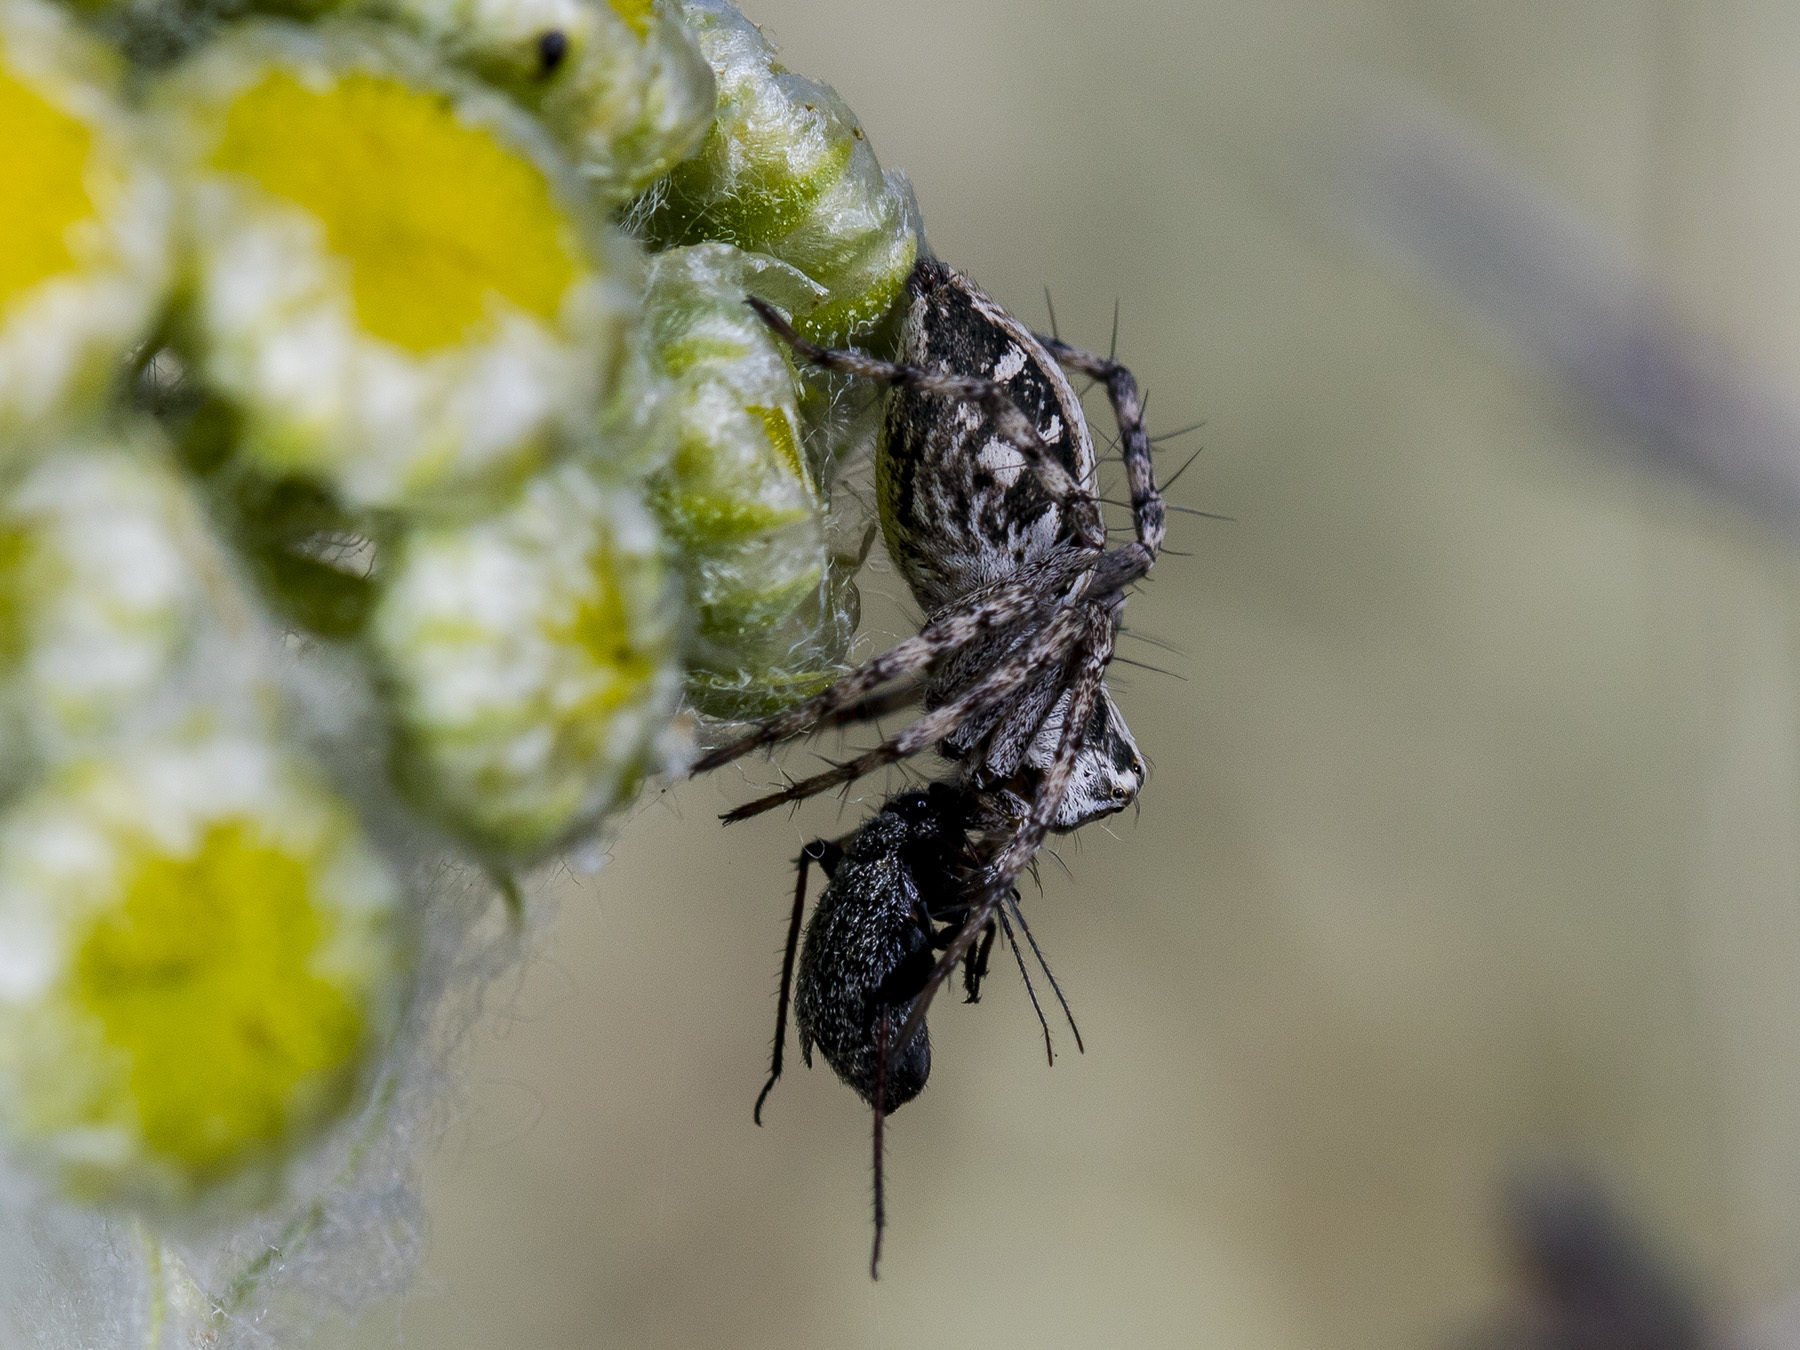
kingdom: Animalia
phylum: Arthropoda
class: Arachnida
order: Araneae
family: Oxyopidae
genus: Oxyopes
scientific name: Oxyopes globifer
